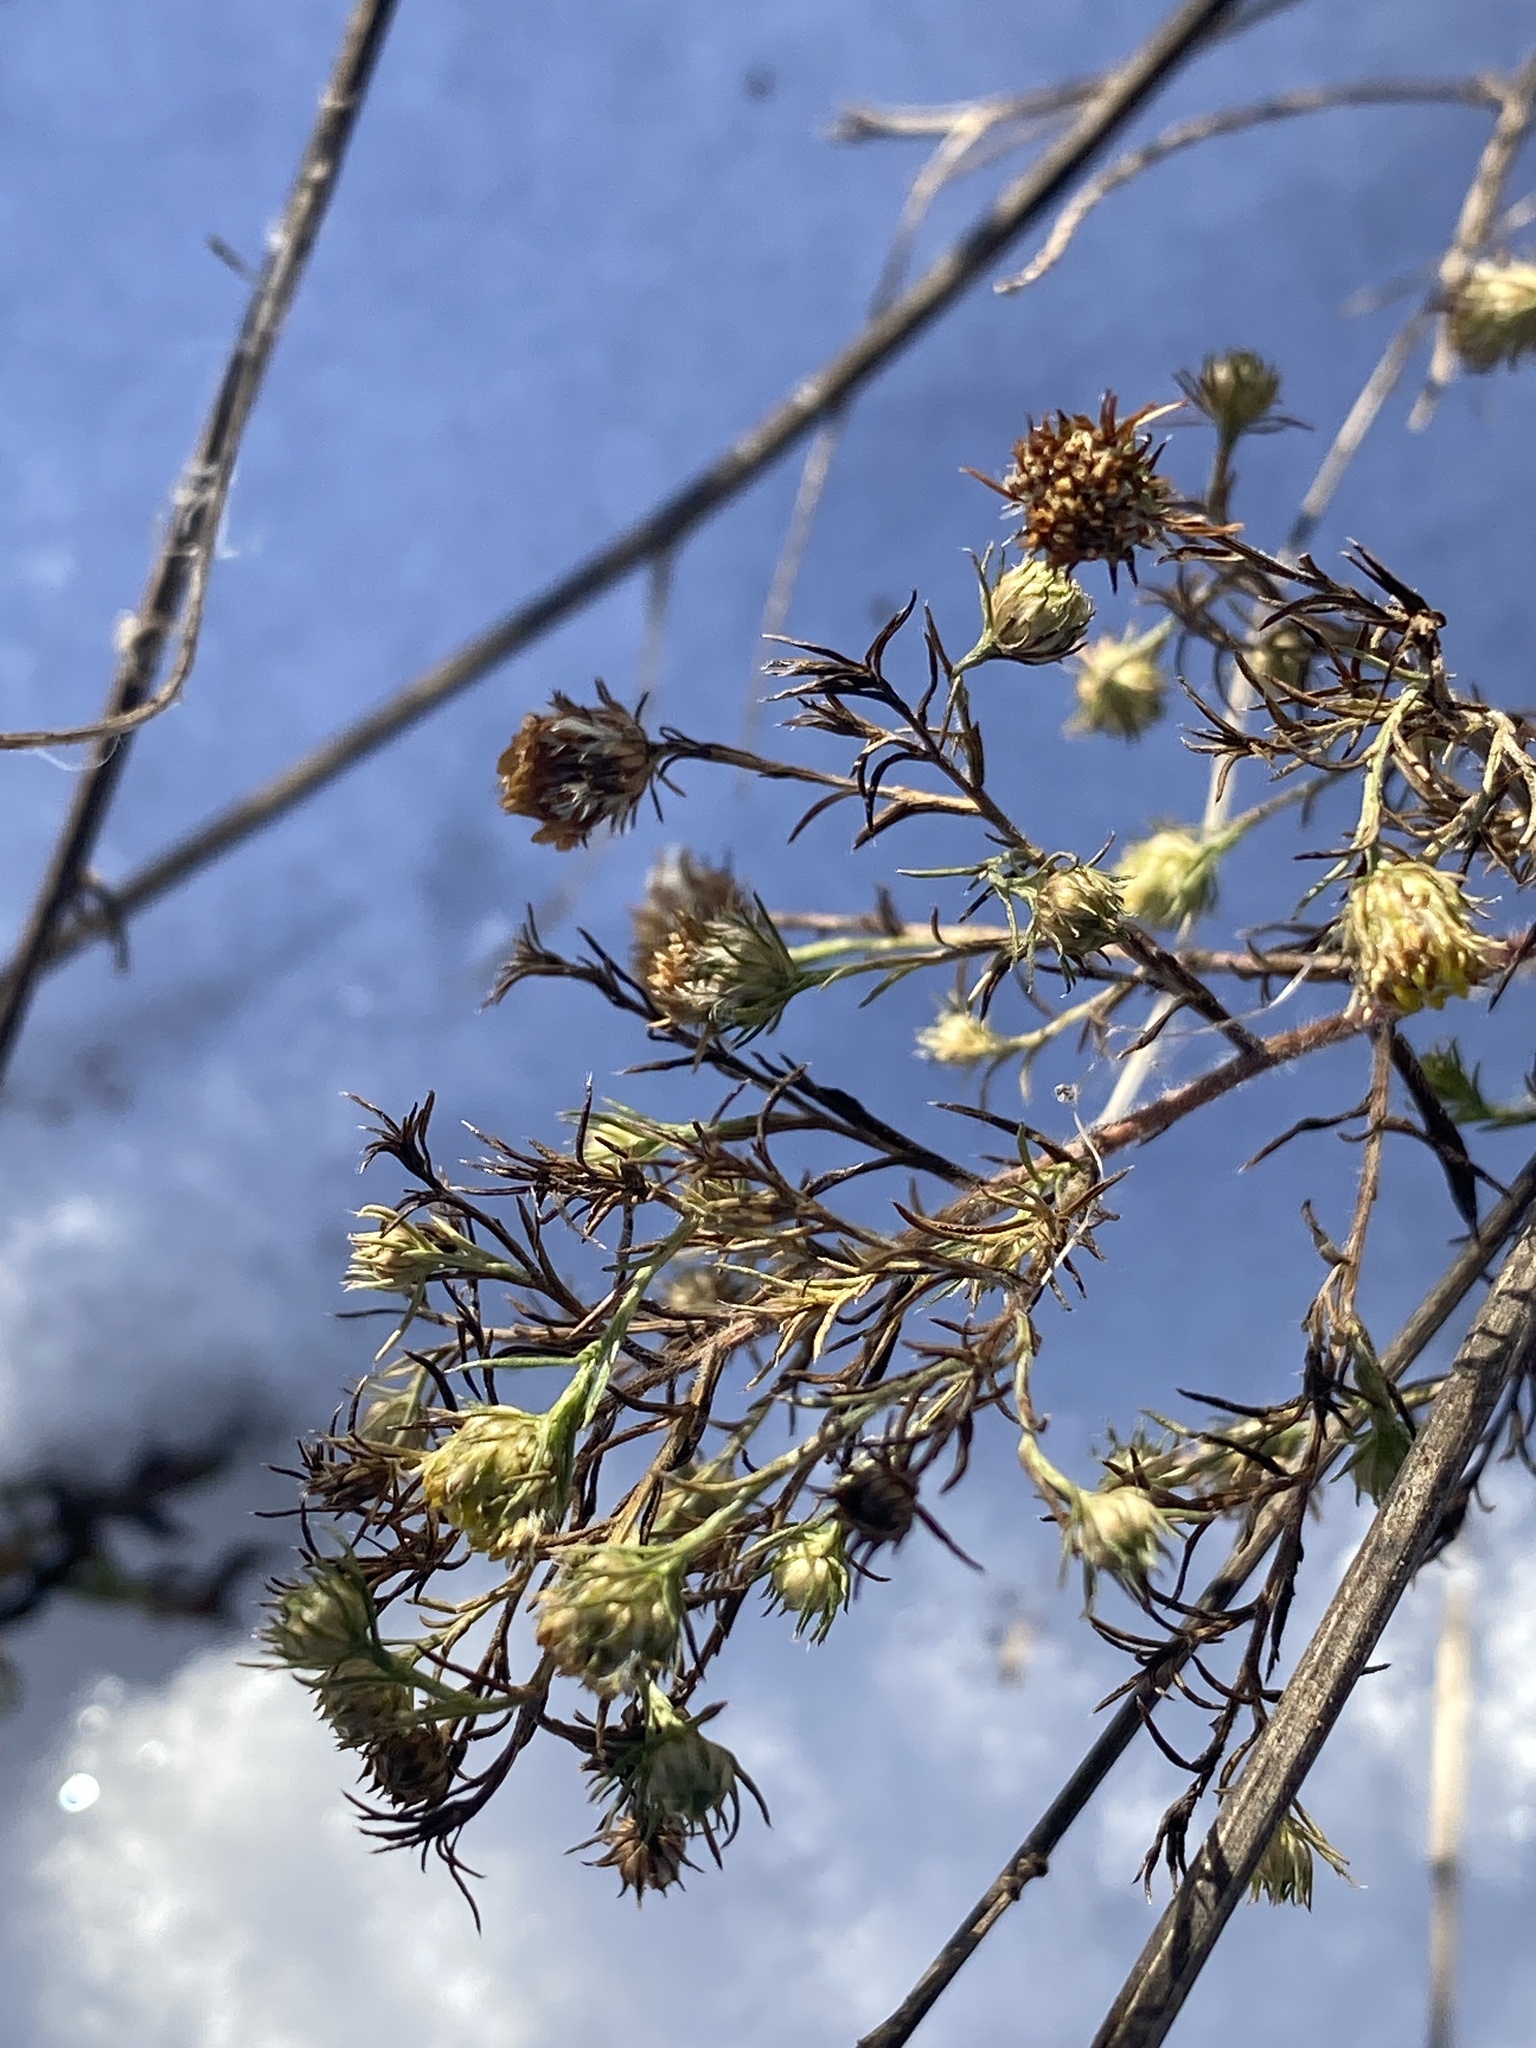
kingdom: Plantae
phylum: Tracheophyta
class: Magnoliopsida
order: Asterales
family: Asteraceae
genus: Symphyotrichum
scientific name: Symphyotrichum pilosum
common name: Awl aster
